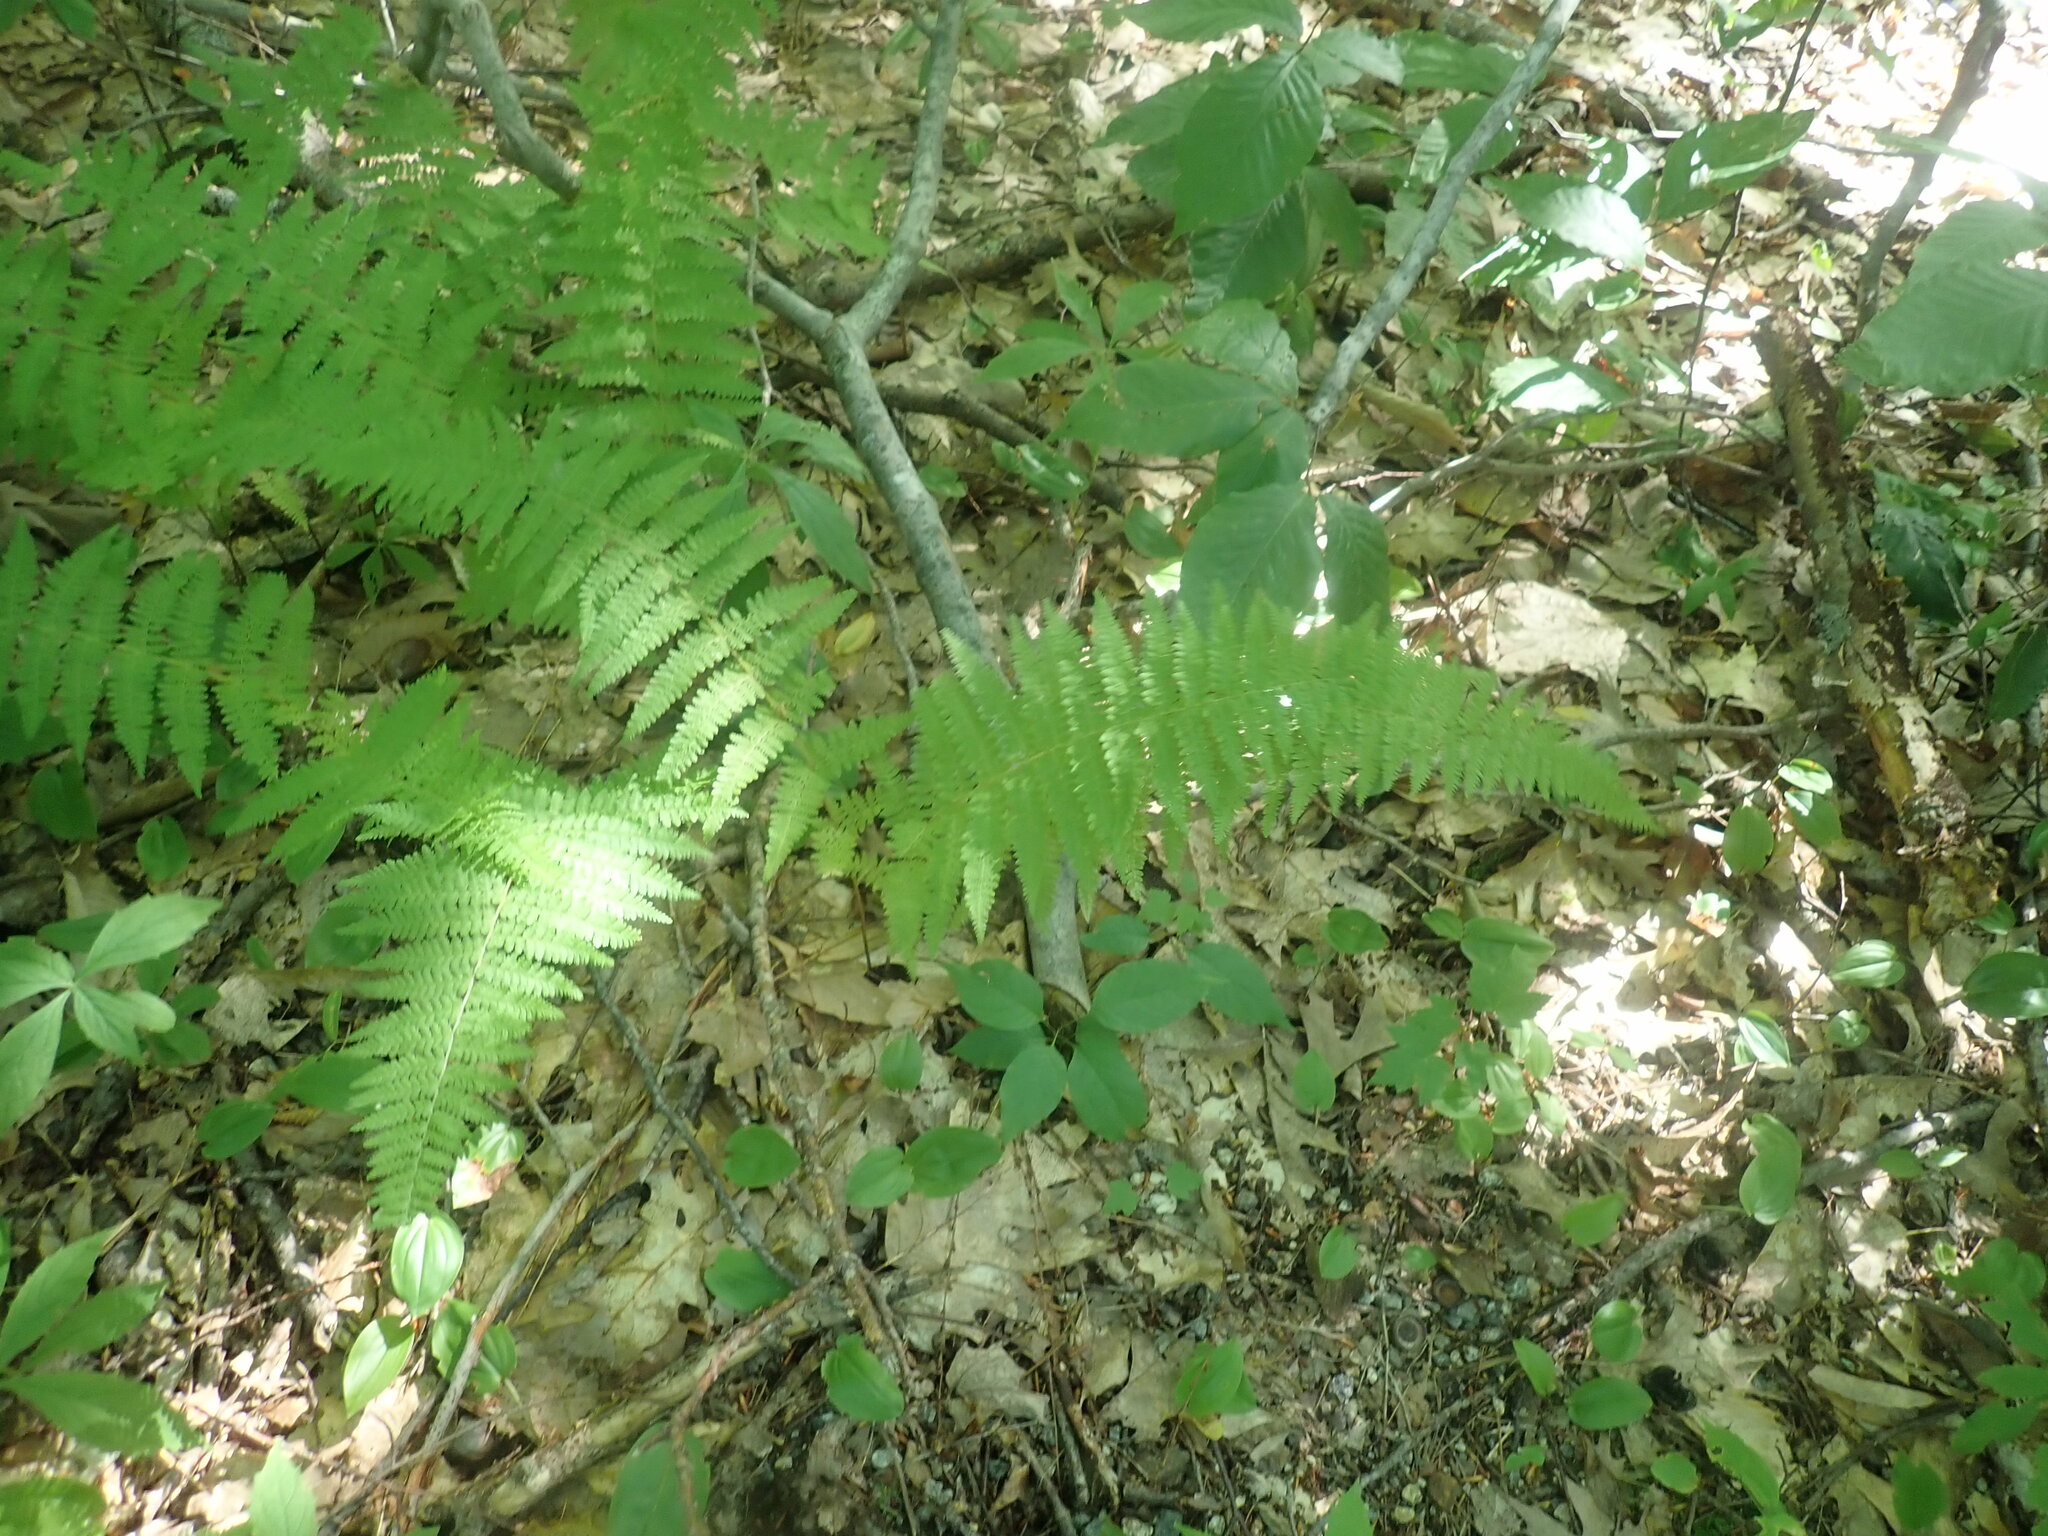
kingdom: Plantae
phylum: Tracheophyta
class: Polypodiopsida
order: Polypodiales
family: Dennstaedtiaceae
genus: Sitobolium
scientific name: Sitobolium punctilobum
